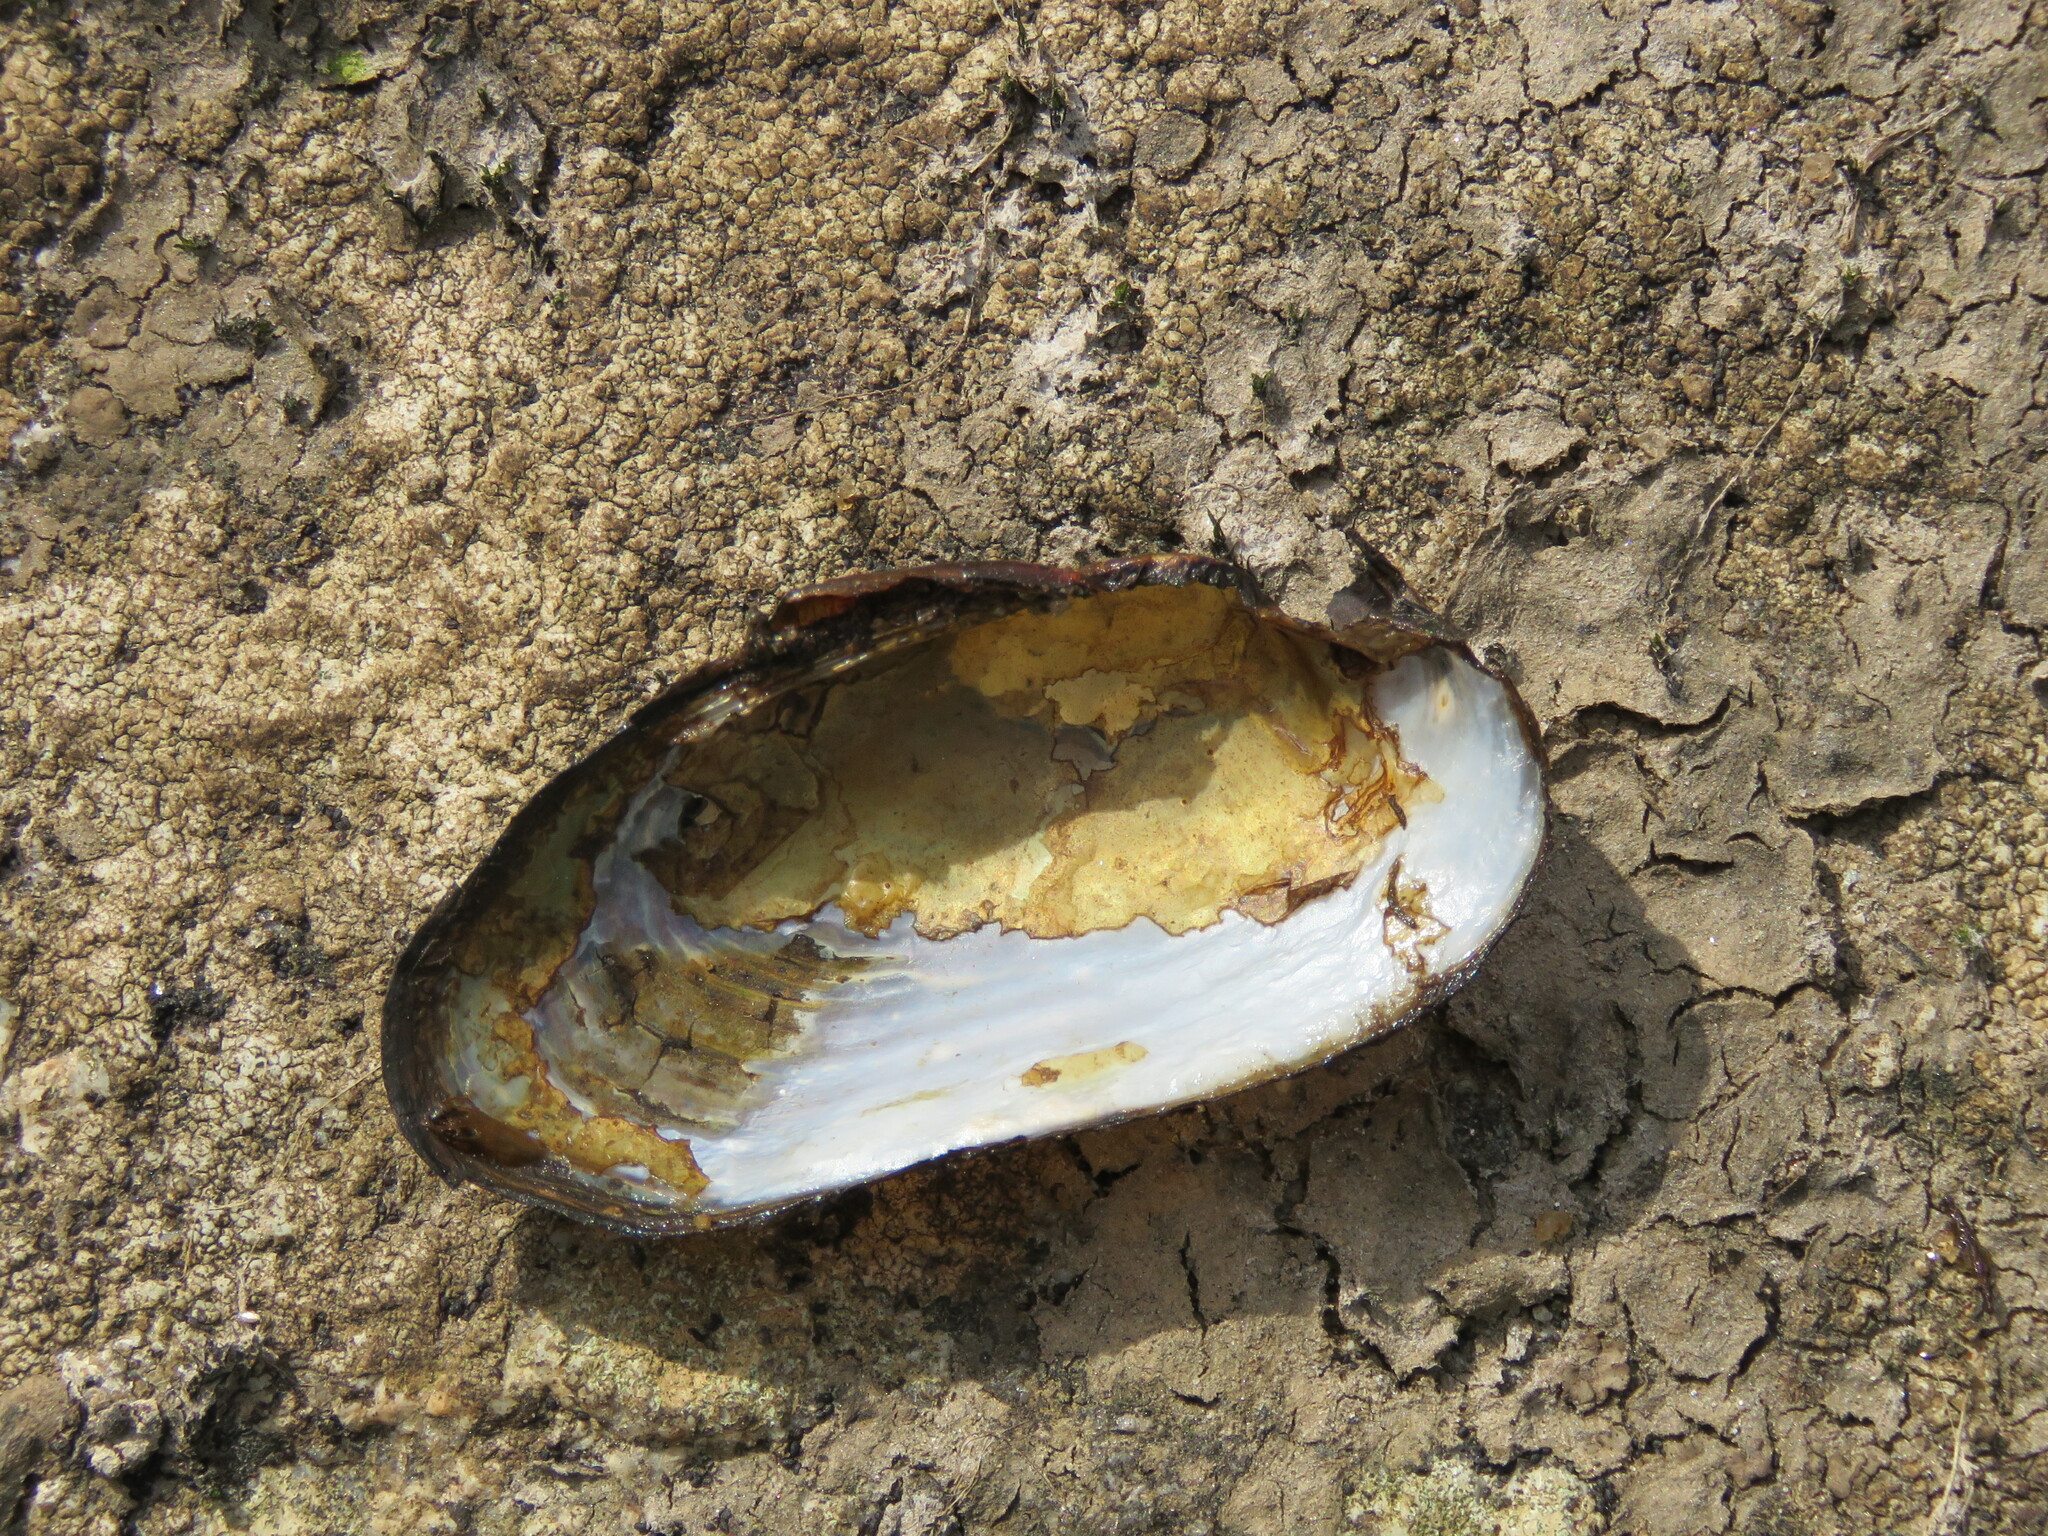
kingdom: Animalia
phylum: Mollusca
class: Bivalvia
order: Unionida
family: Margaritiferidae
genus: Margaritifera
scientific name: Margaritifera margaritifera
